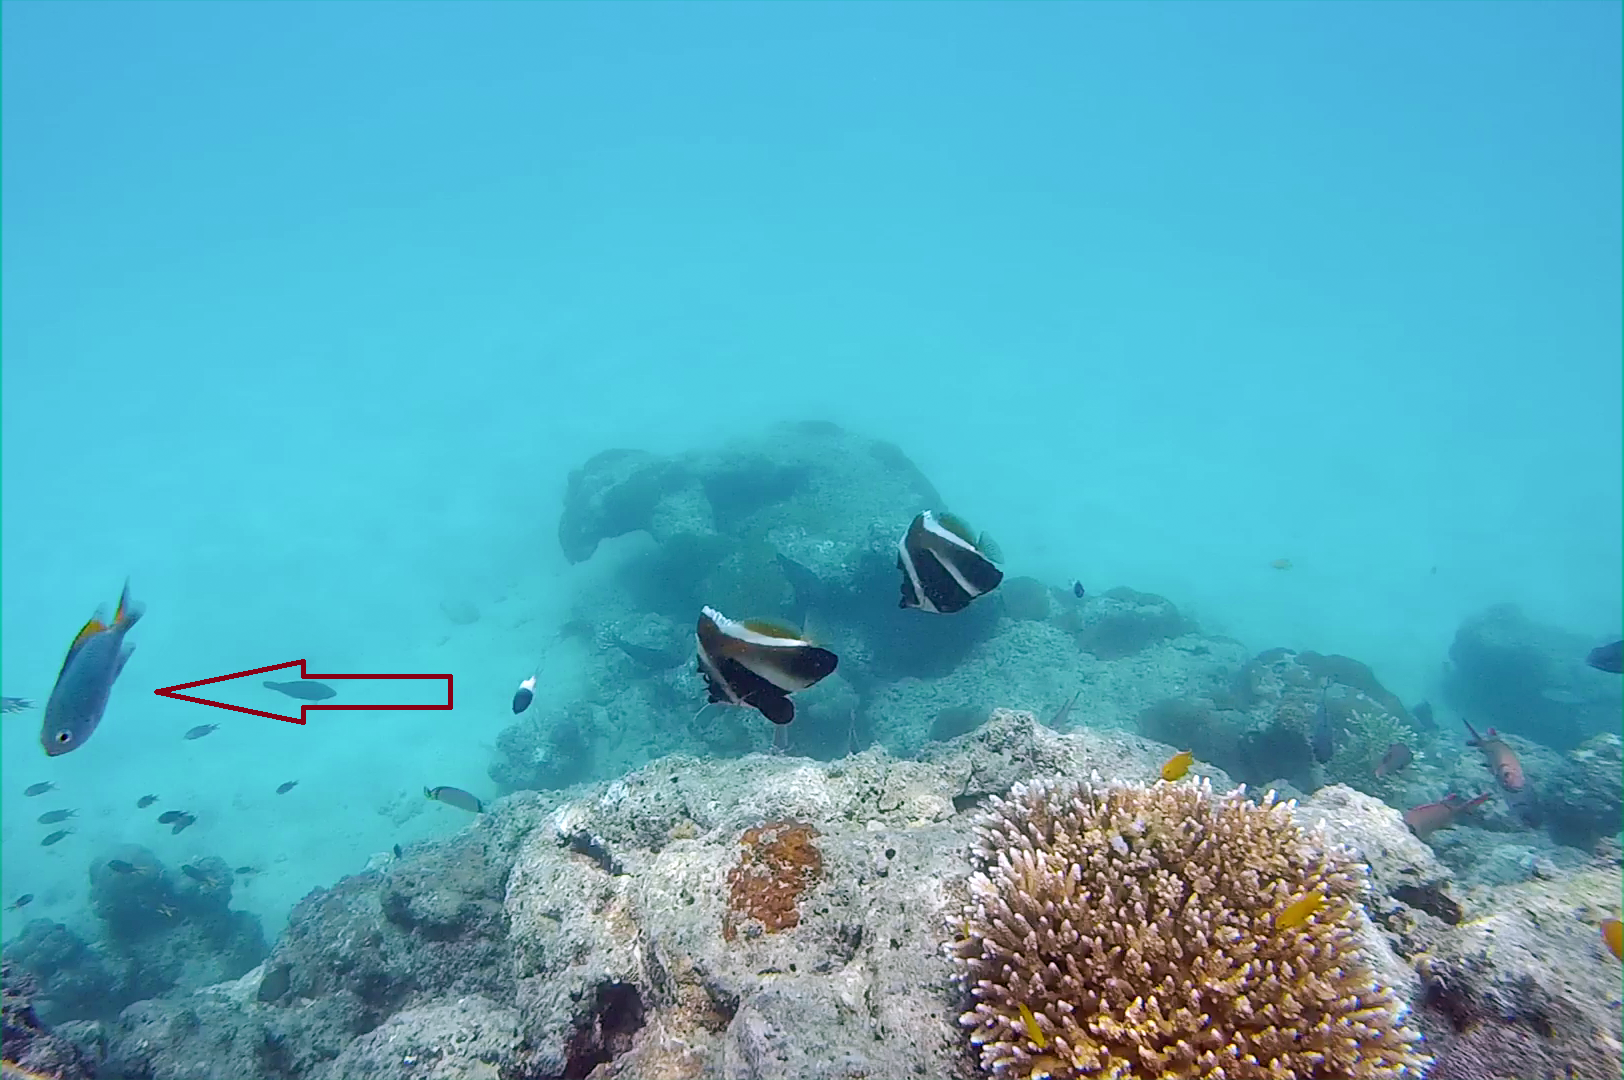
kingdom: Animalia
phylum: Chordata
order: Perciformes
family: Pomacentridae
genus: Pomacentrus
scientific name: Pomacentrus lepidogenys
